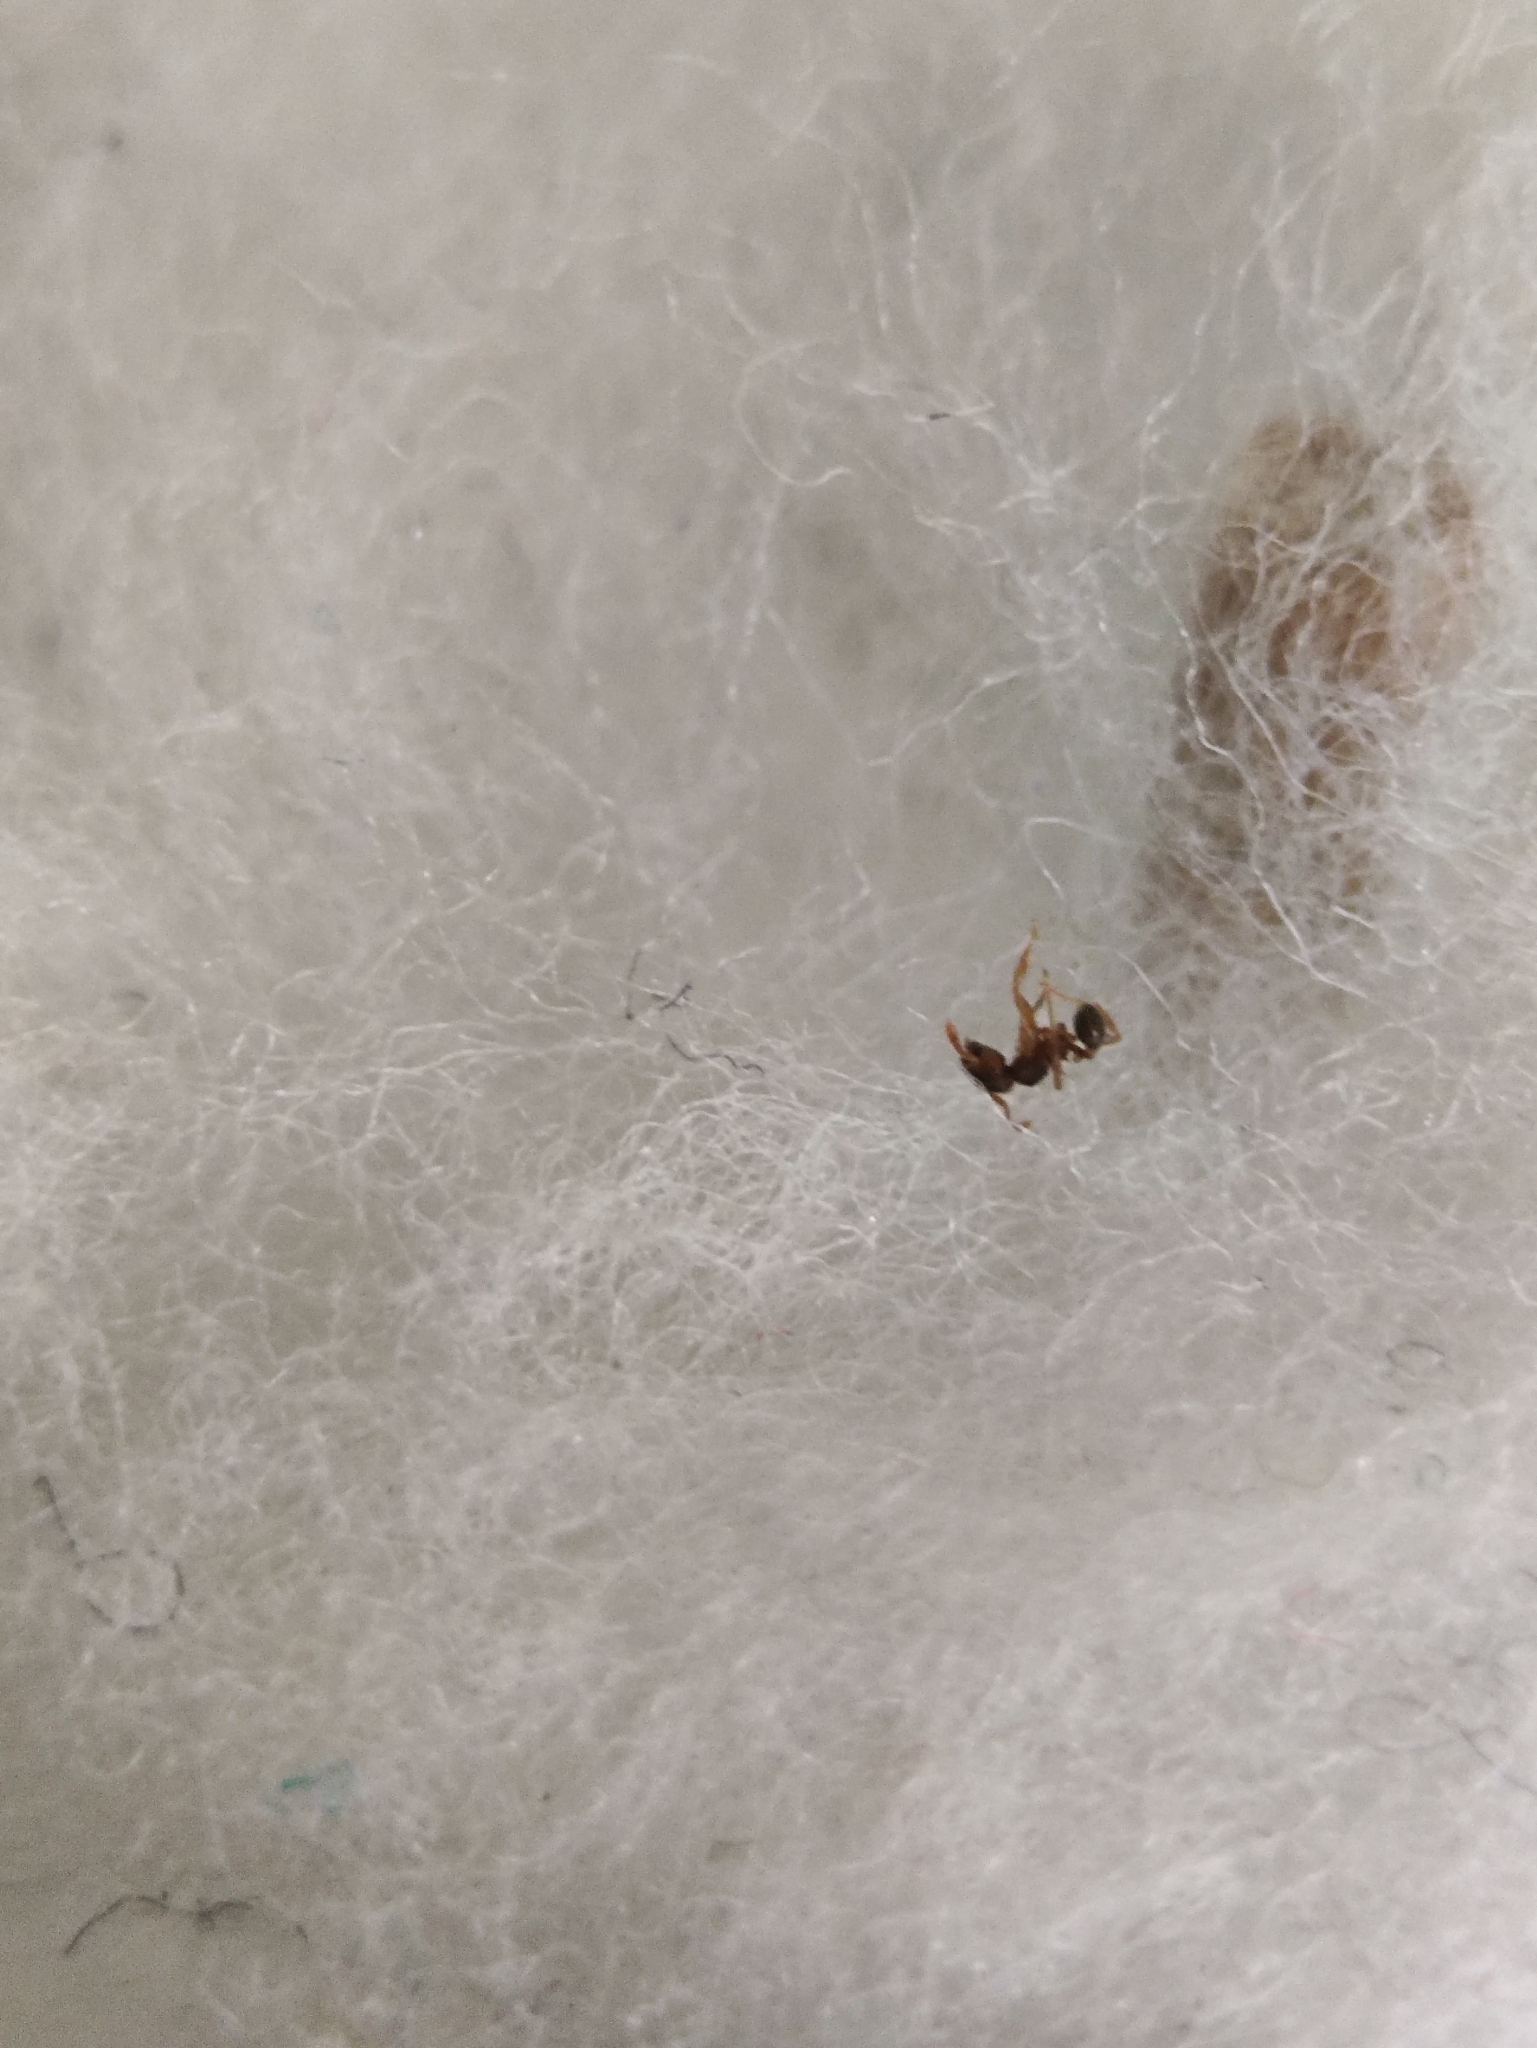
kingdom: Animalia
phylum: Arthropoda
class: Insecta
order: Hymenoptera
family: Formicidae
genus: Pheidole
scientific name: Pheidole parva
